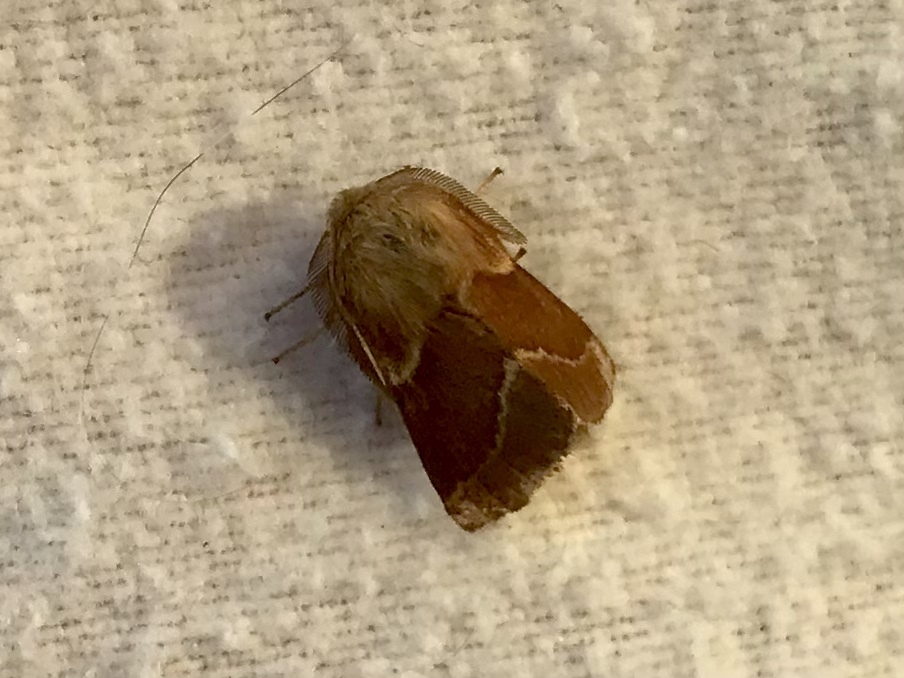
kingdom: Animalia
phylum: Arthropoda
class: Insecta
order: Lepidoptera
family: Lasiocampidae
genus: Malacosoma
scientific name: Malacosoma californica
